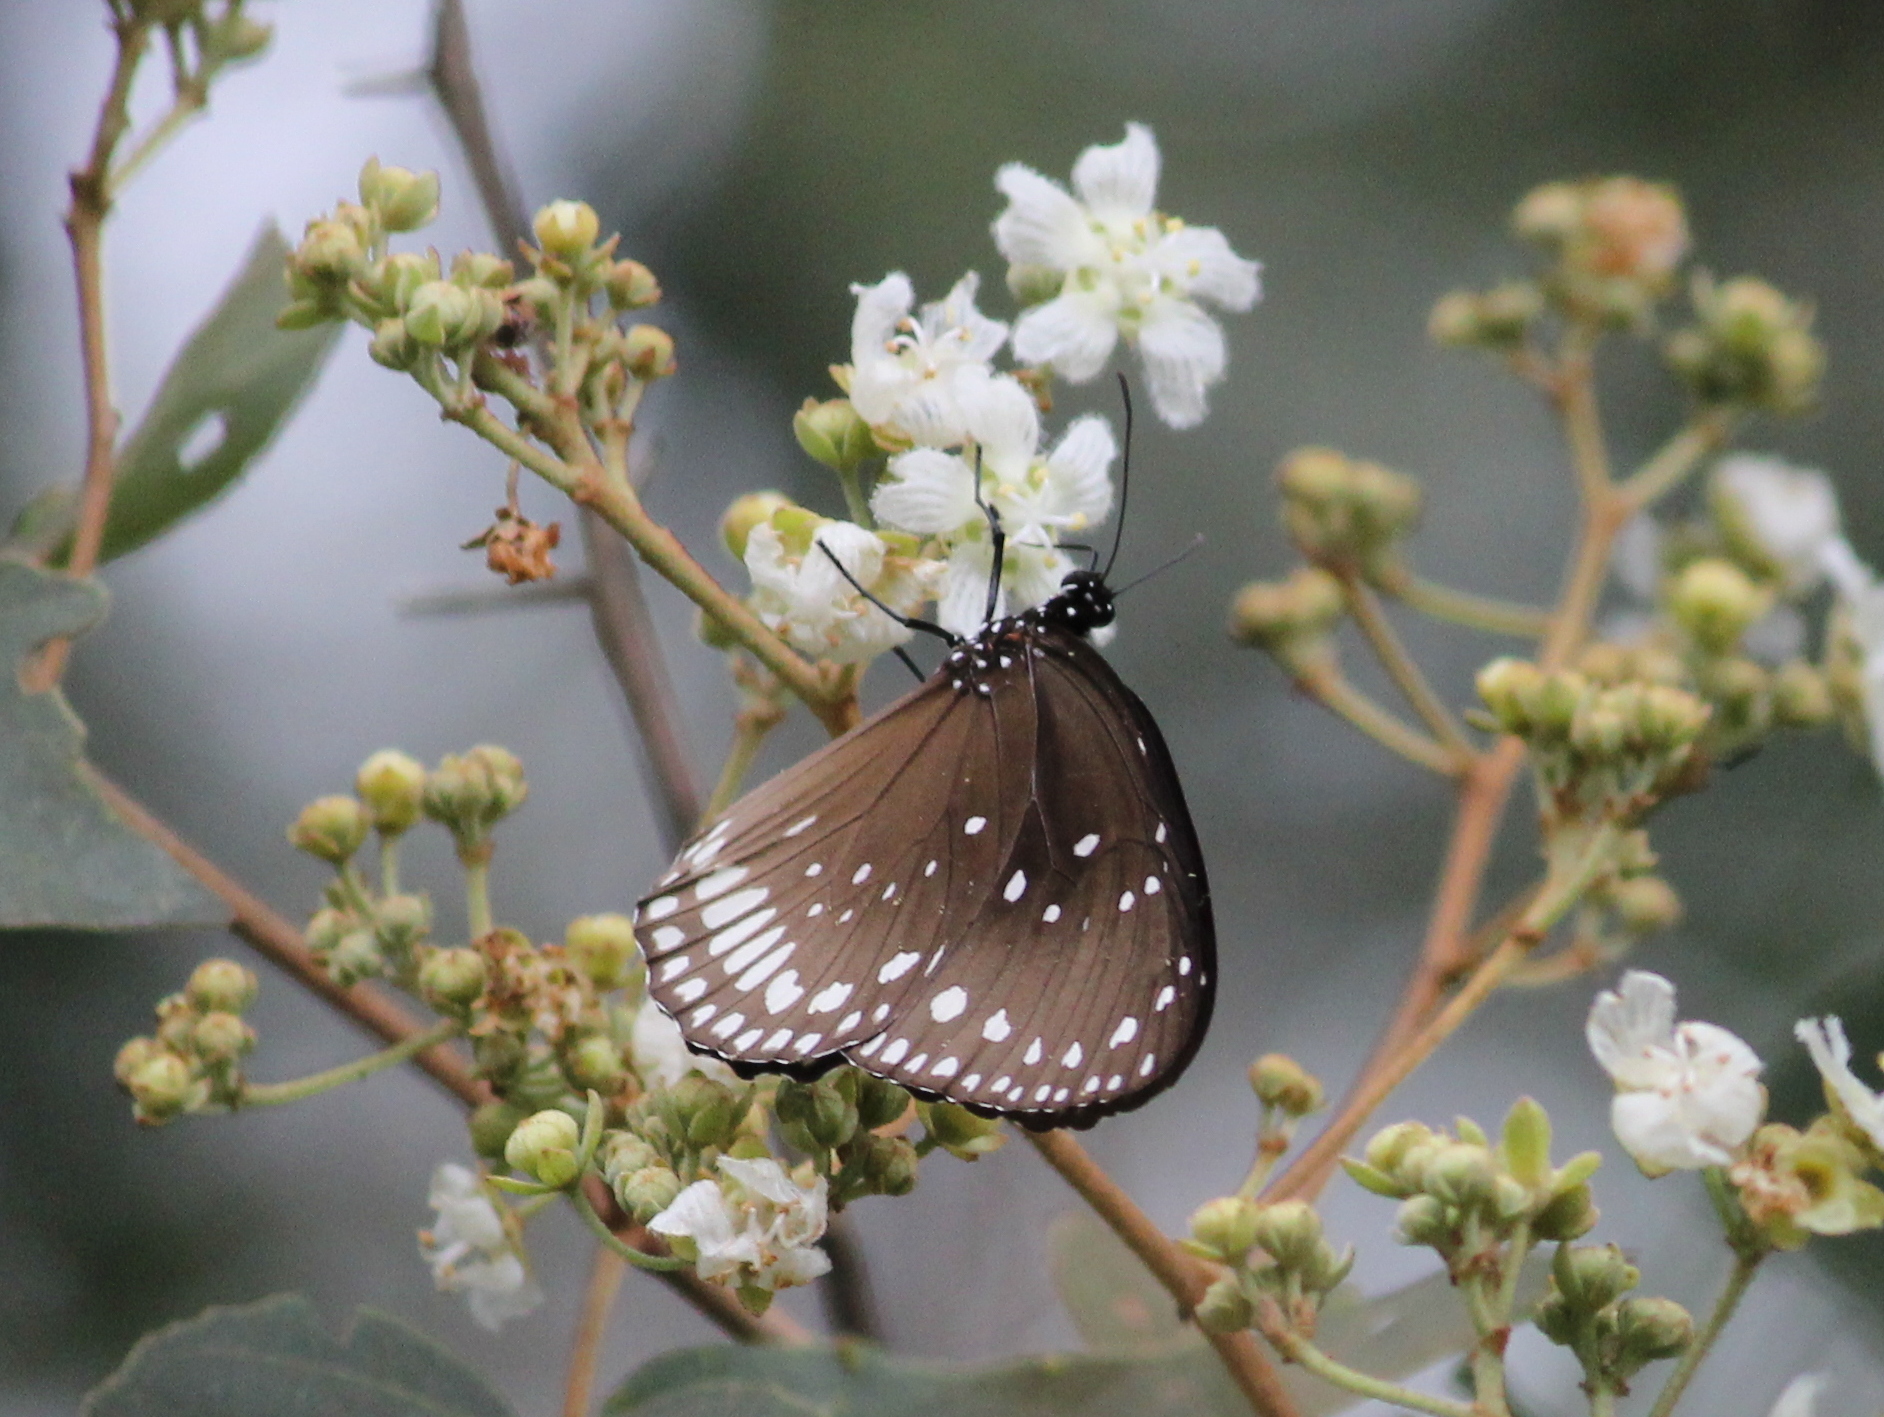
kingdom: Animalia
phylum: Arthropoda
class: Insecta
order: Lepidoptera
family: Nymphalidae
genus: Euploea
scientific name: Euploea sylvester
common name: Double-branded crow butterfly
